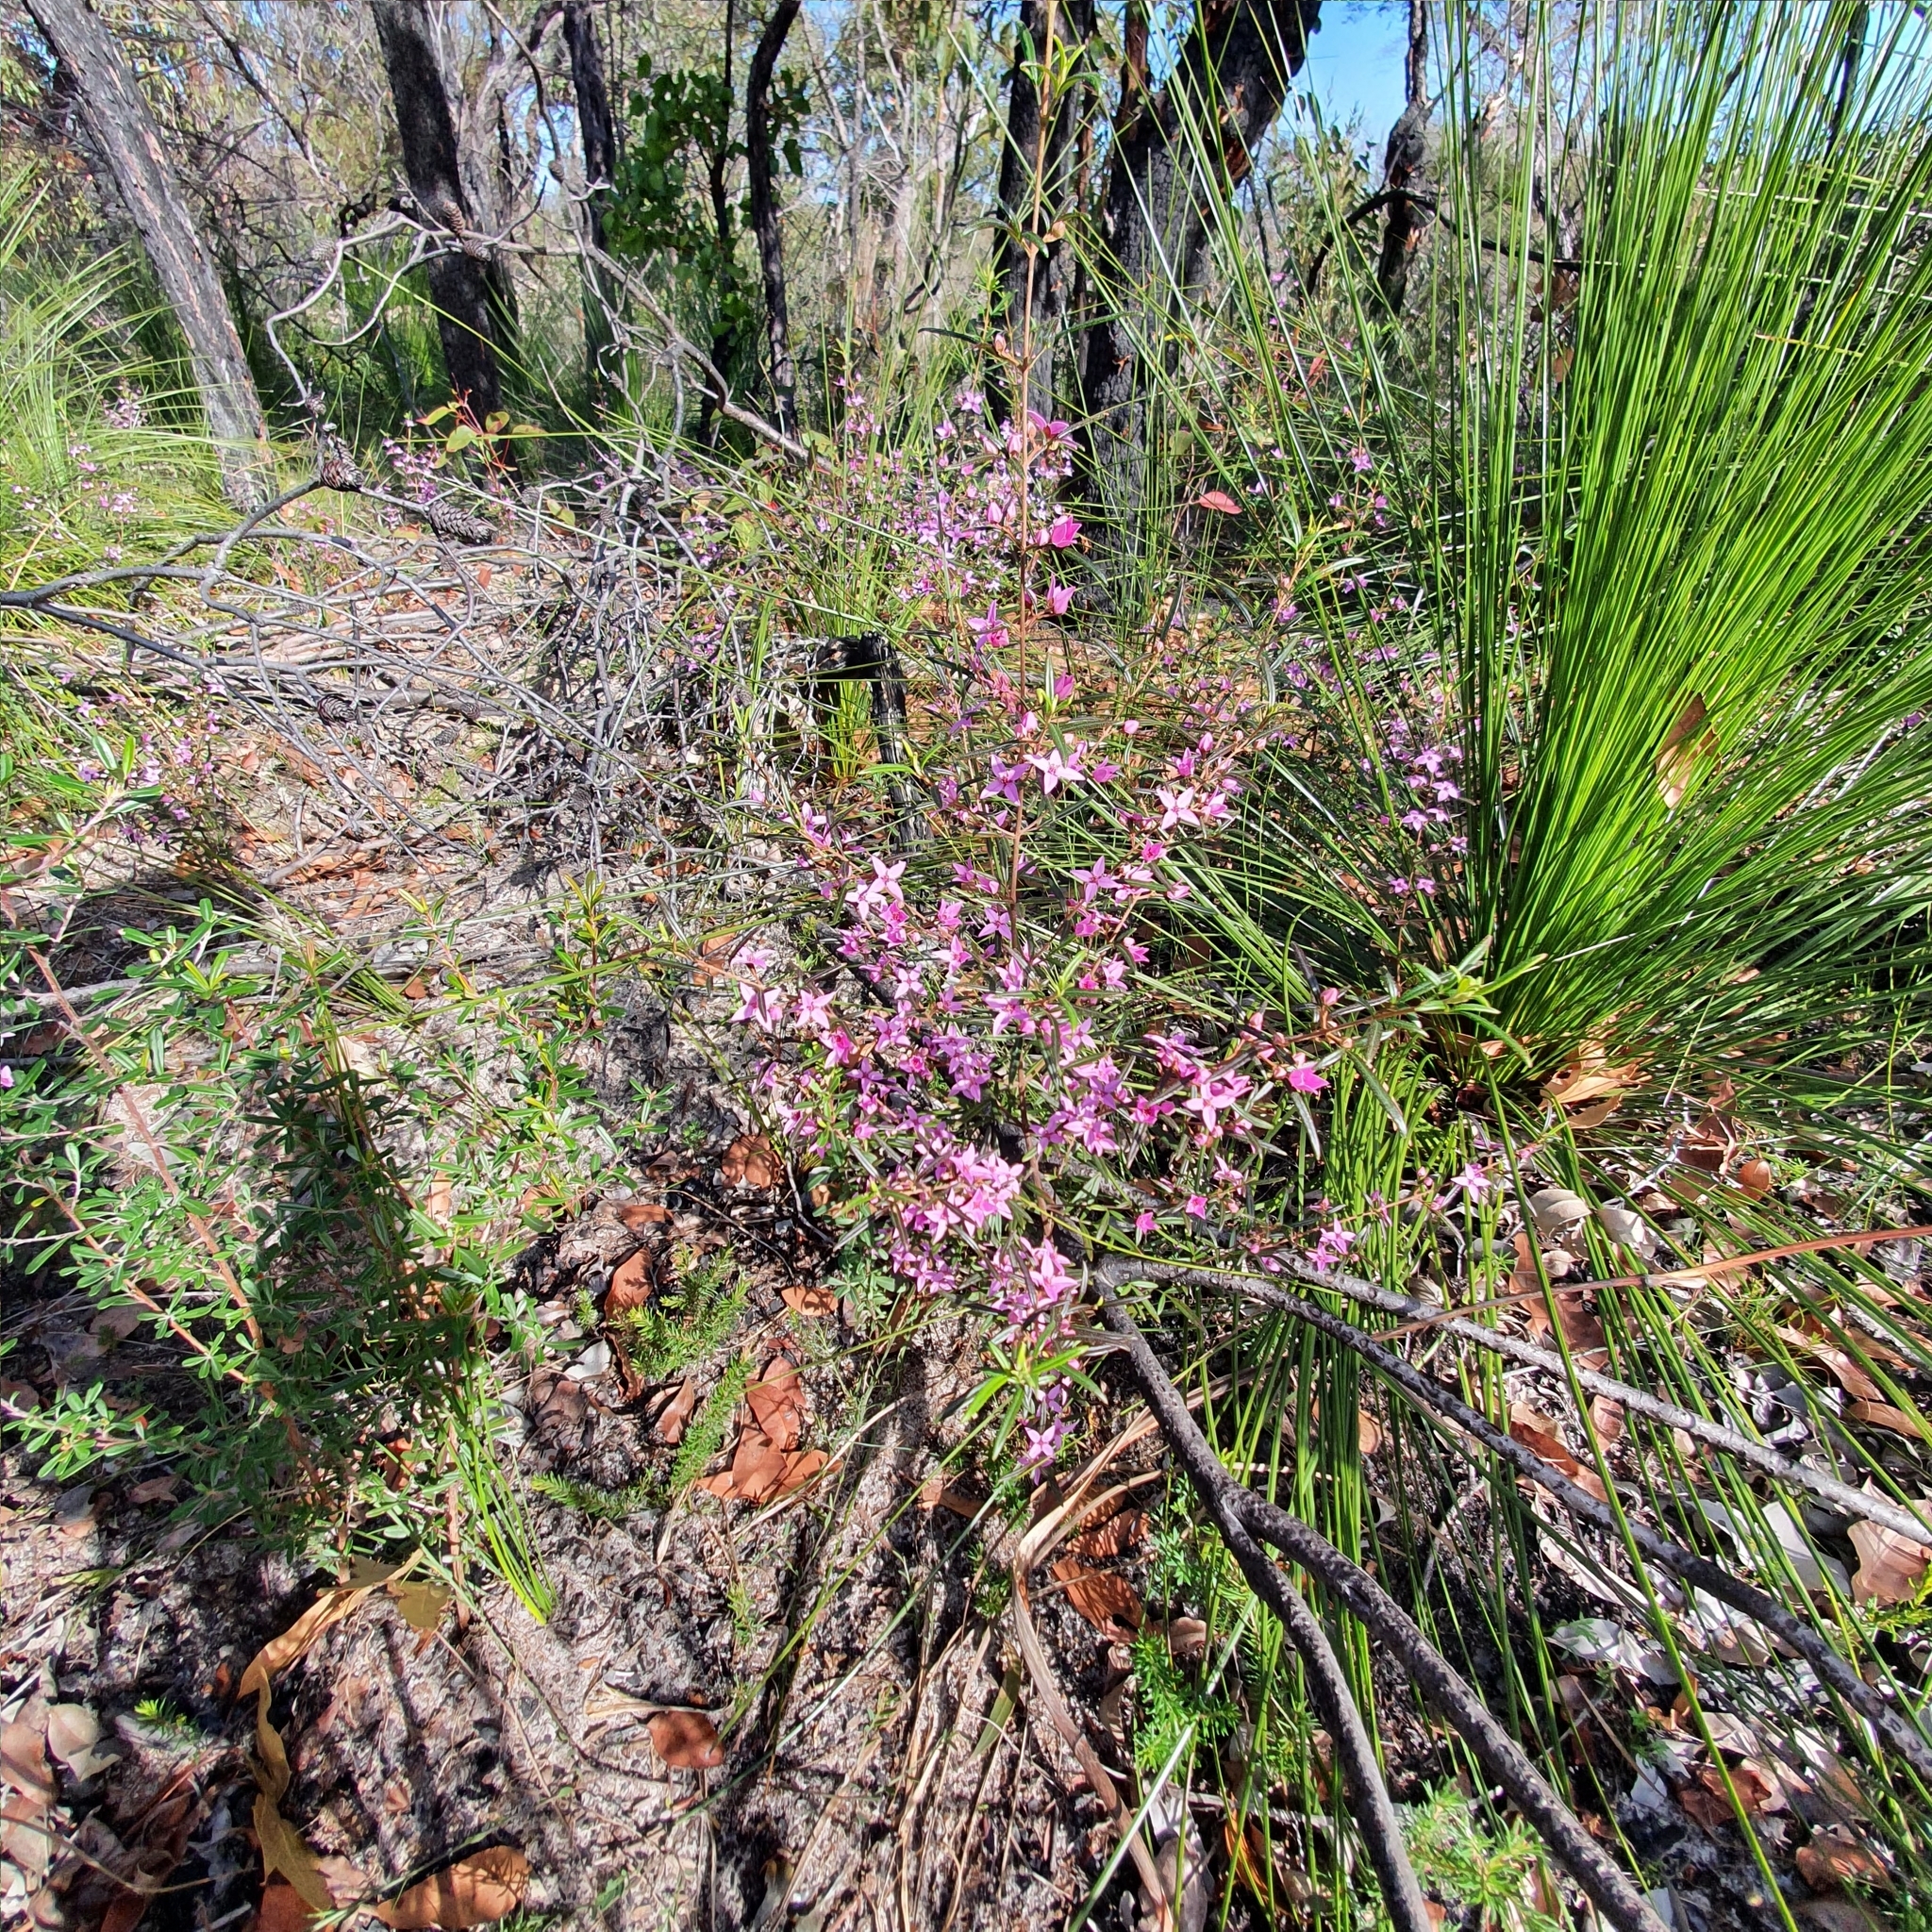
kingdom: Plantae
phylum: Tracheophyta
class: Magnoliopsida
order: Sapindales
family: Rutaceae
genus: Boronia
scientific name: Boronia ledifolia
